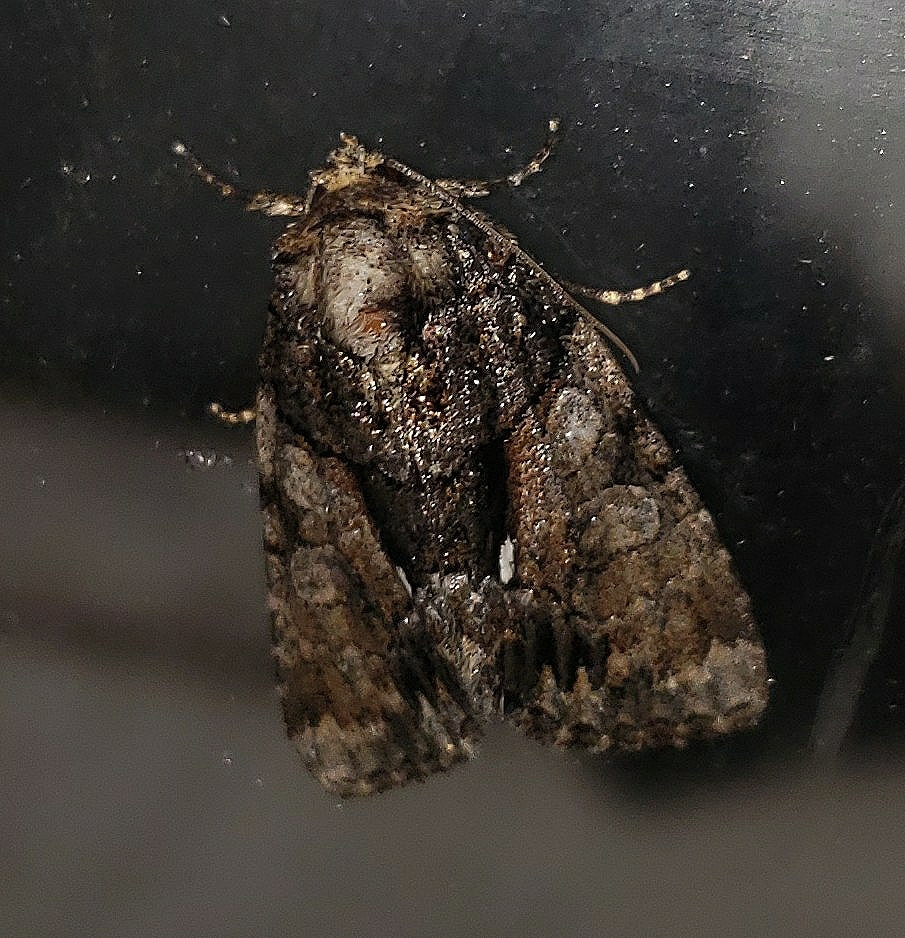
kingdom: Animalia
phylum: Arthropoda
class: Insecta
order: Lepidoptera
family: Noctuidae
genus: Chytonix
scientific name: Chytonix palliatricula
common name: Cloaked marvel
